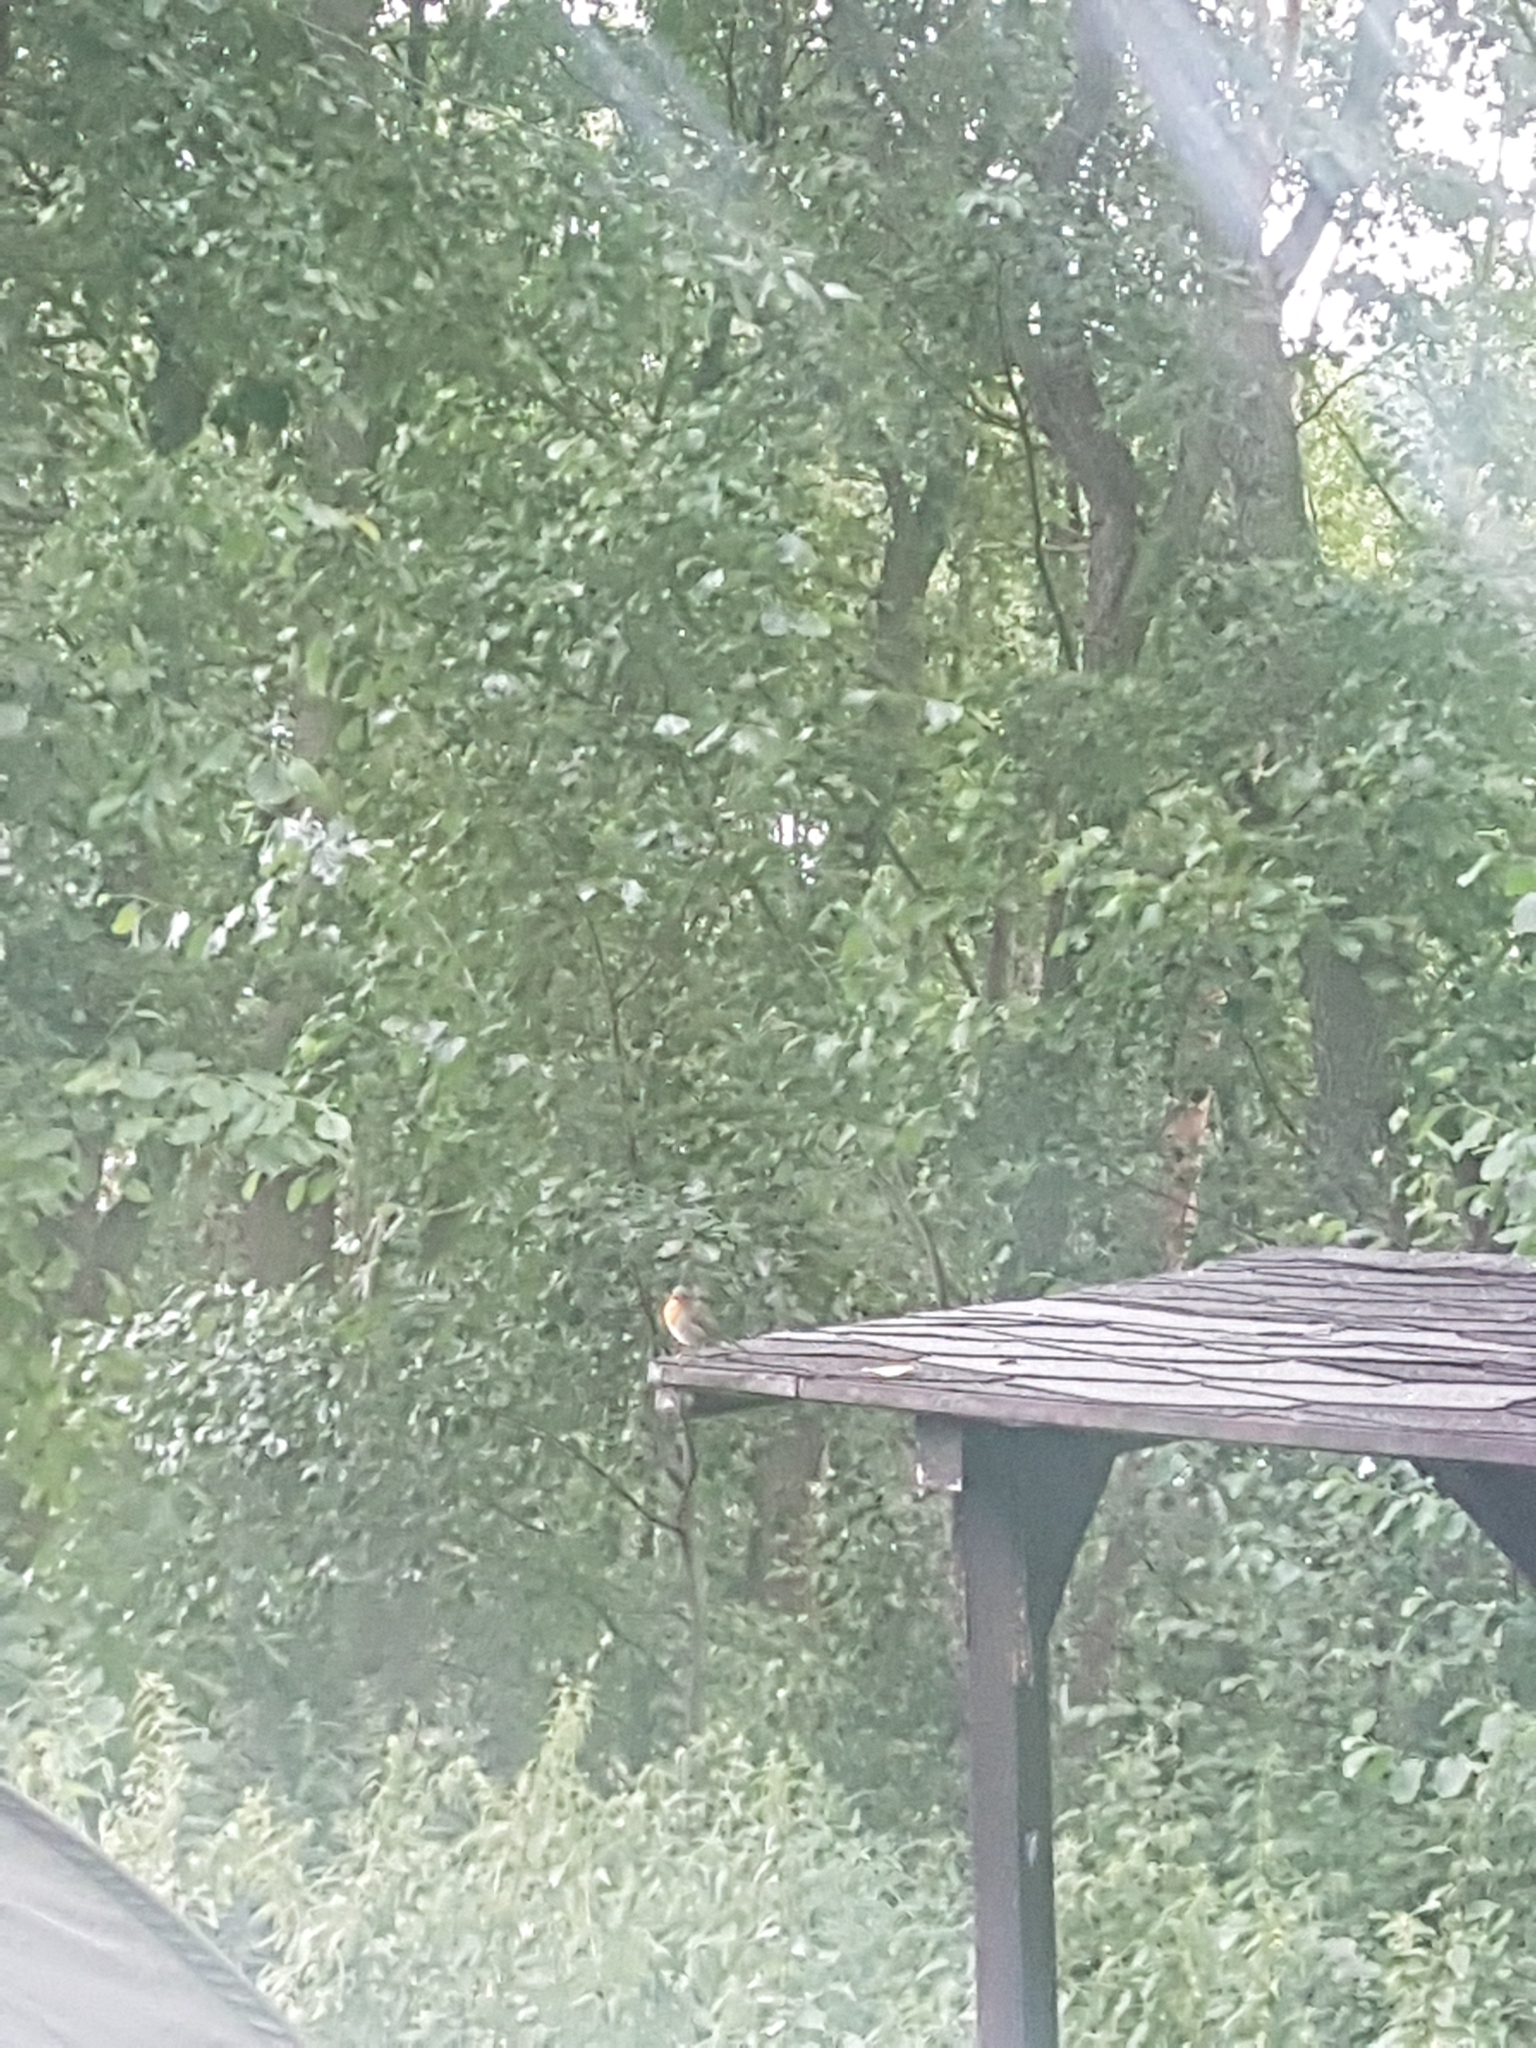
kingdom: Animalia
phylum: Chordata
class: Aves
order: Passeriformes
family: Muscicapidae
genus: Erithacus
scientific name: Erithacus rubecula
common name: European robin
